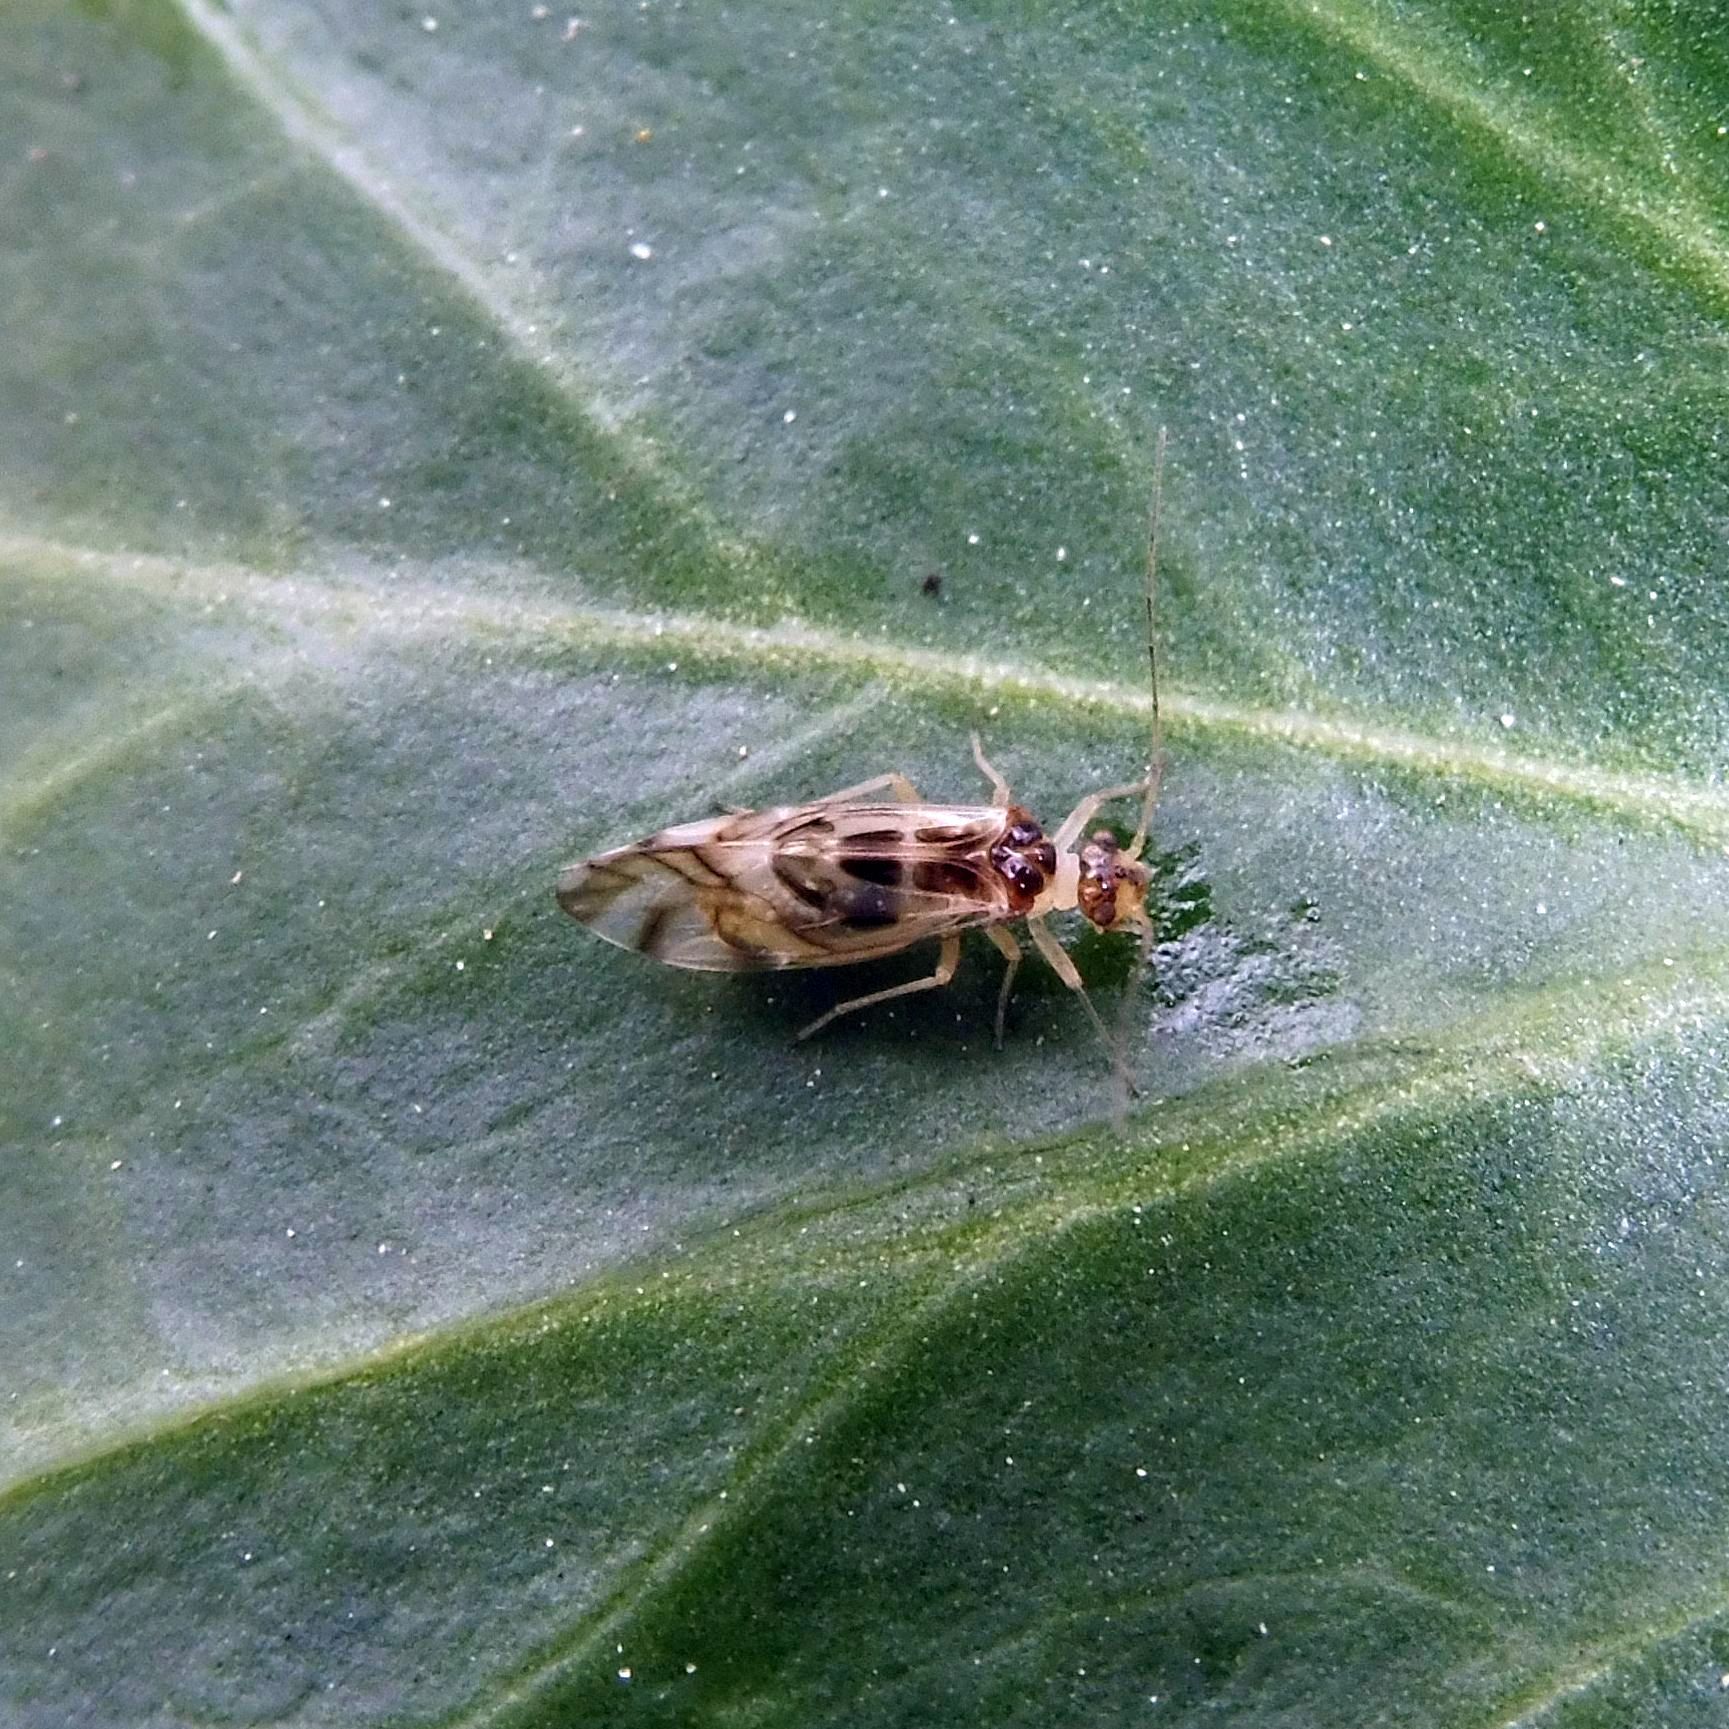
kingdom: Animalia
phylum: Arthropoda
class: Insecta
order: Psocodea
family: Stenopsocidae
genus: Graphopsocus
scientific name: Graphopsocus cruciatus
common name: Lizard bark louse
